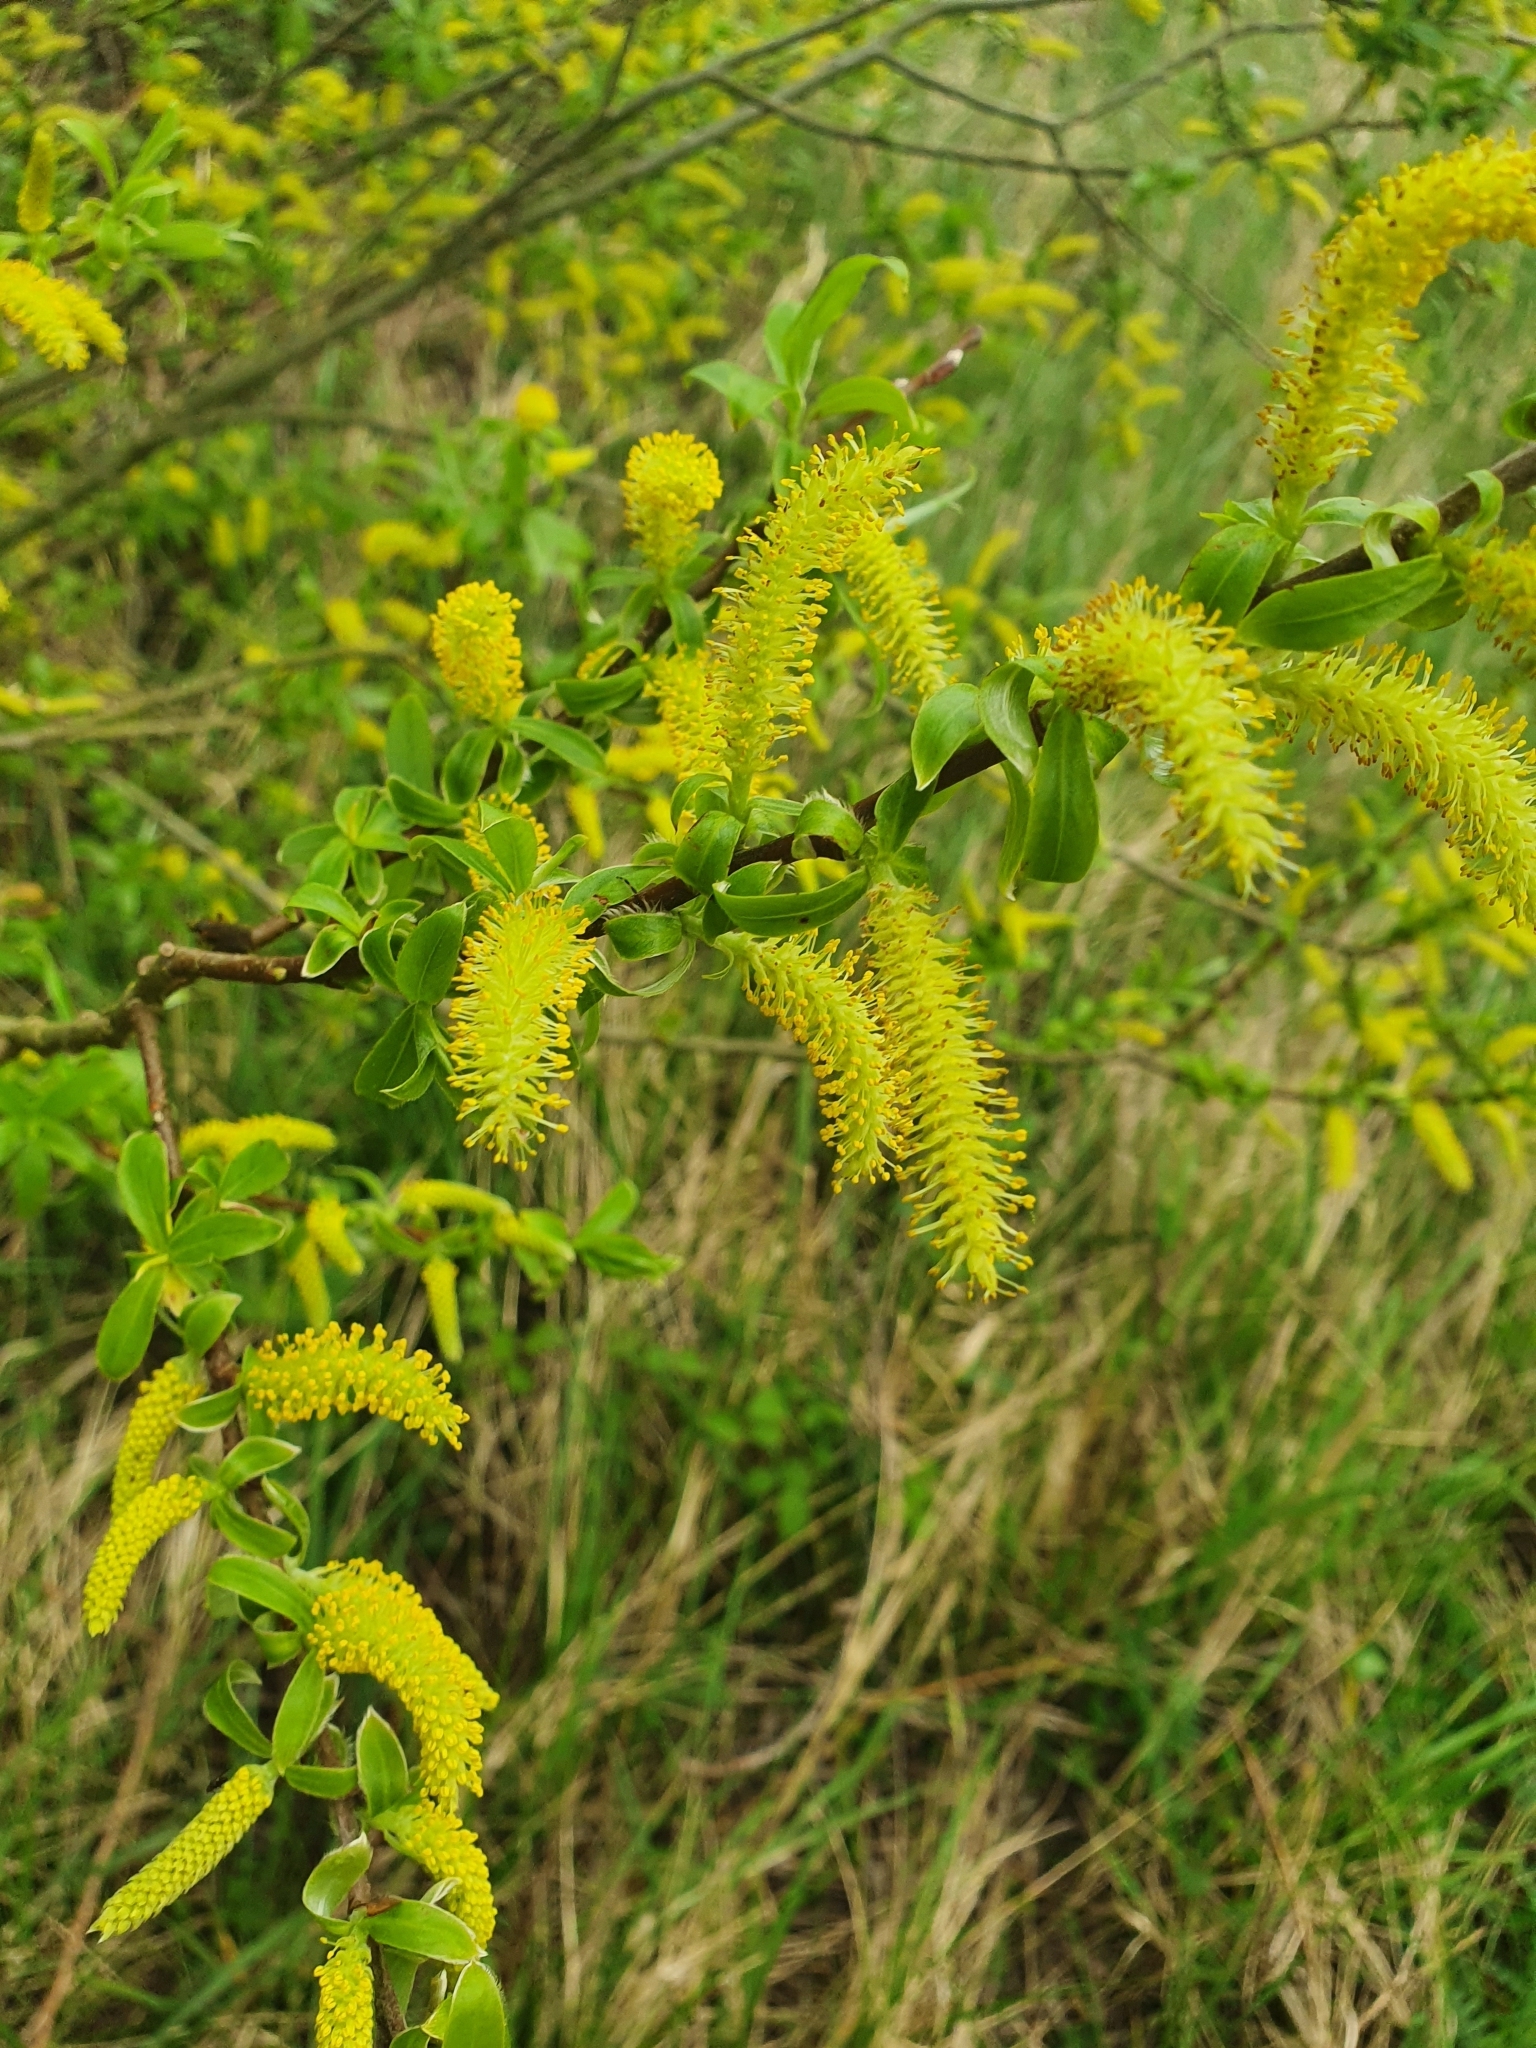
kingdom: Plantae
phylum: Tracheophyta
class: Magnoliopsida
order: Malpighiales
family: Salicaceae
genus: Salix
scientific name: Salix alba
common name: White willow
